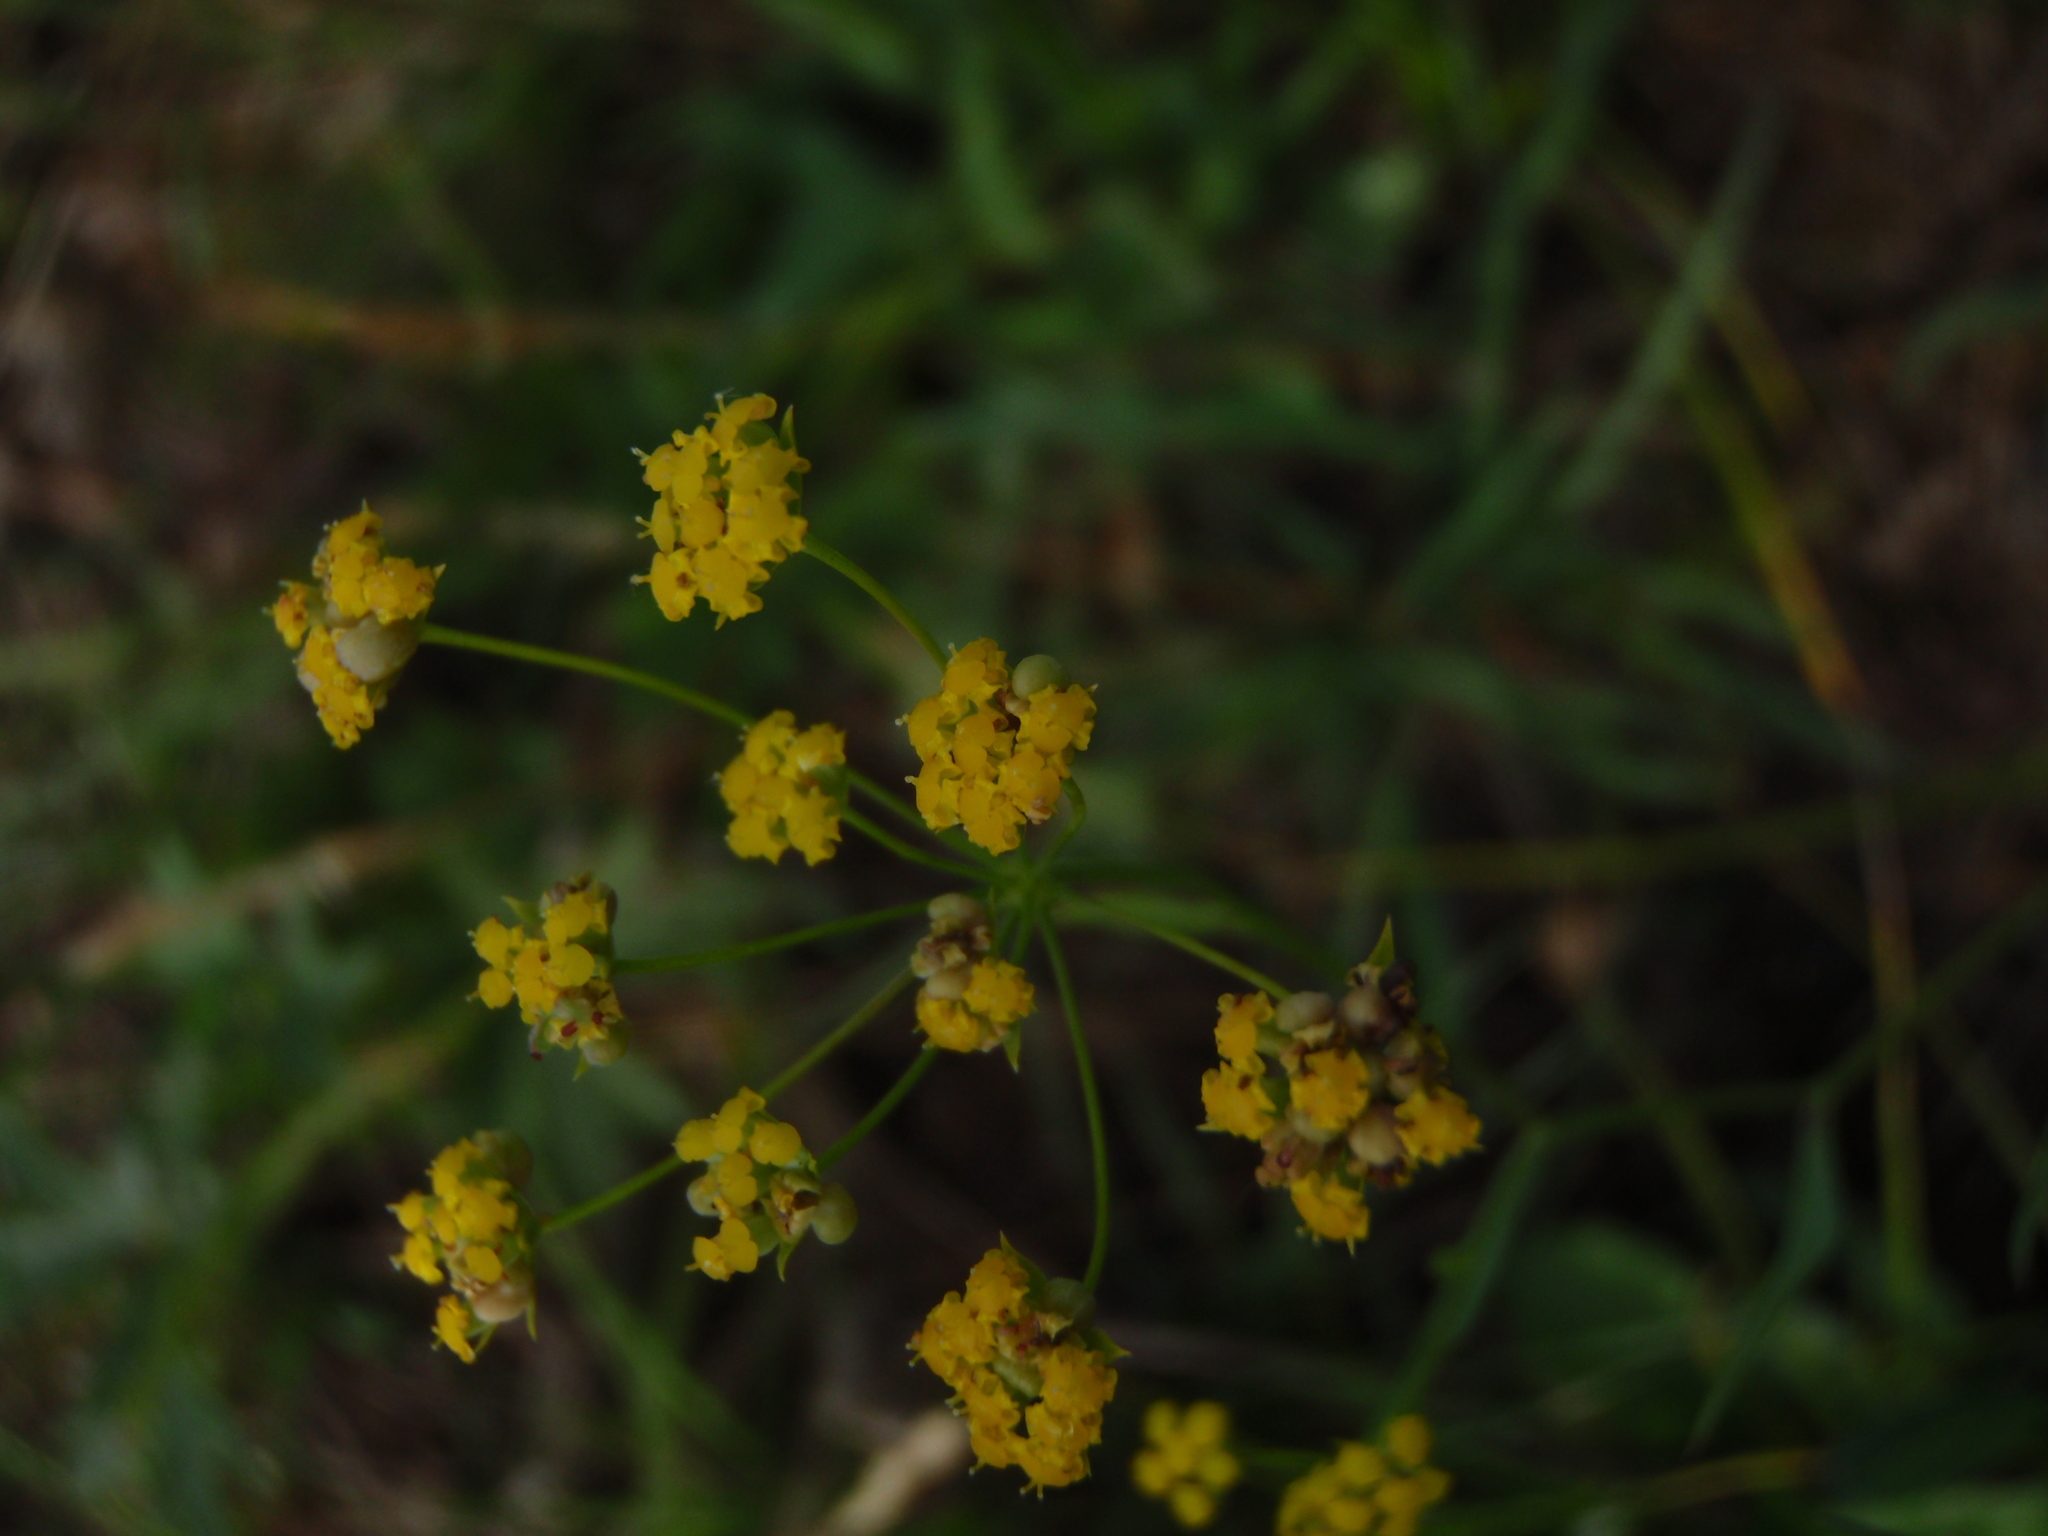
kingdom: Plantae
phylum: Tracheophyta
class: Magnoliopsida
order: Apiales
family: Apiaceae
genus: Bupleurum
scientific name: Bupleurum bicaule
